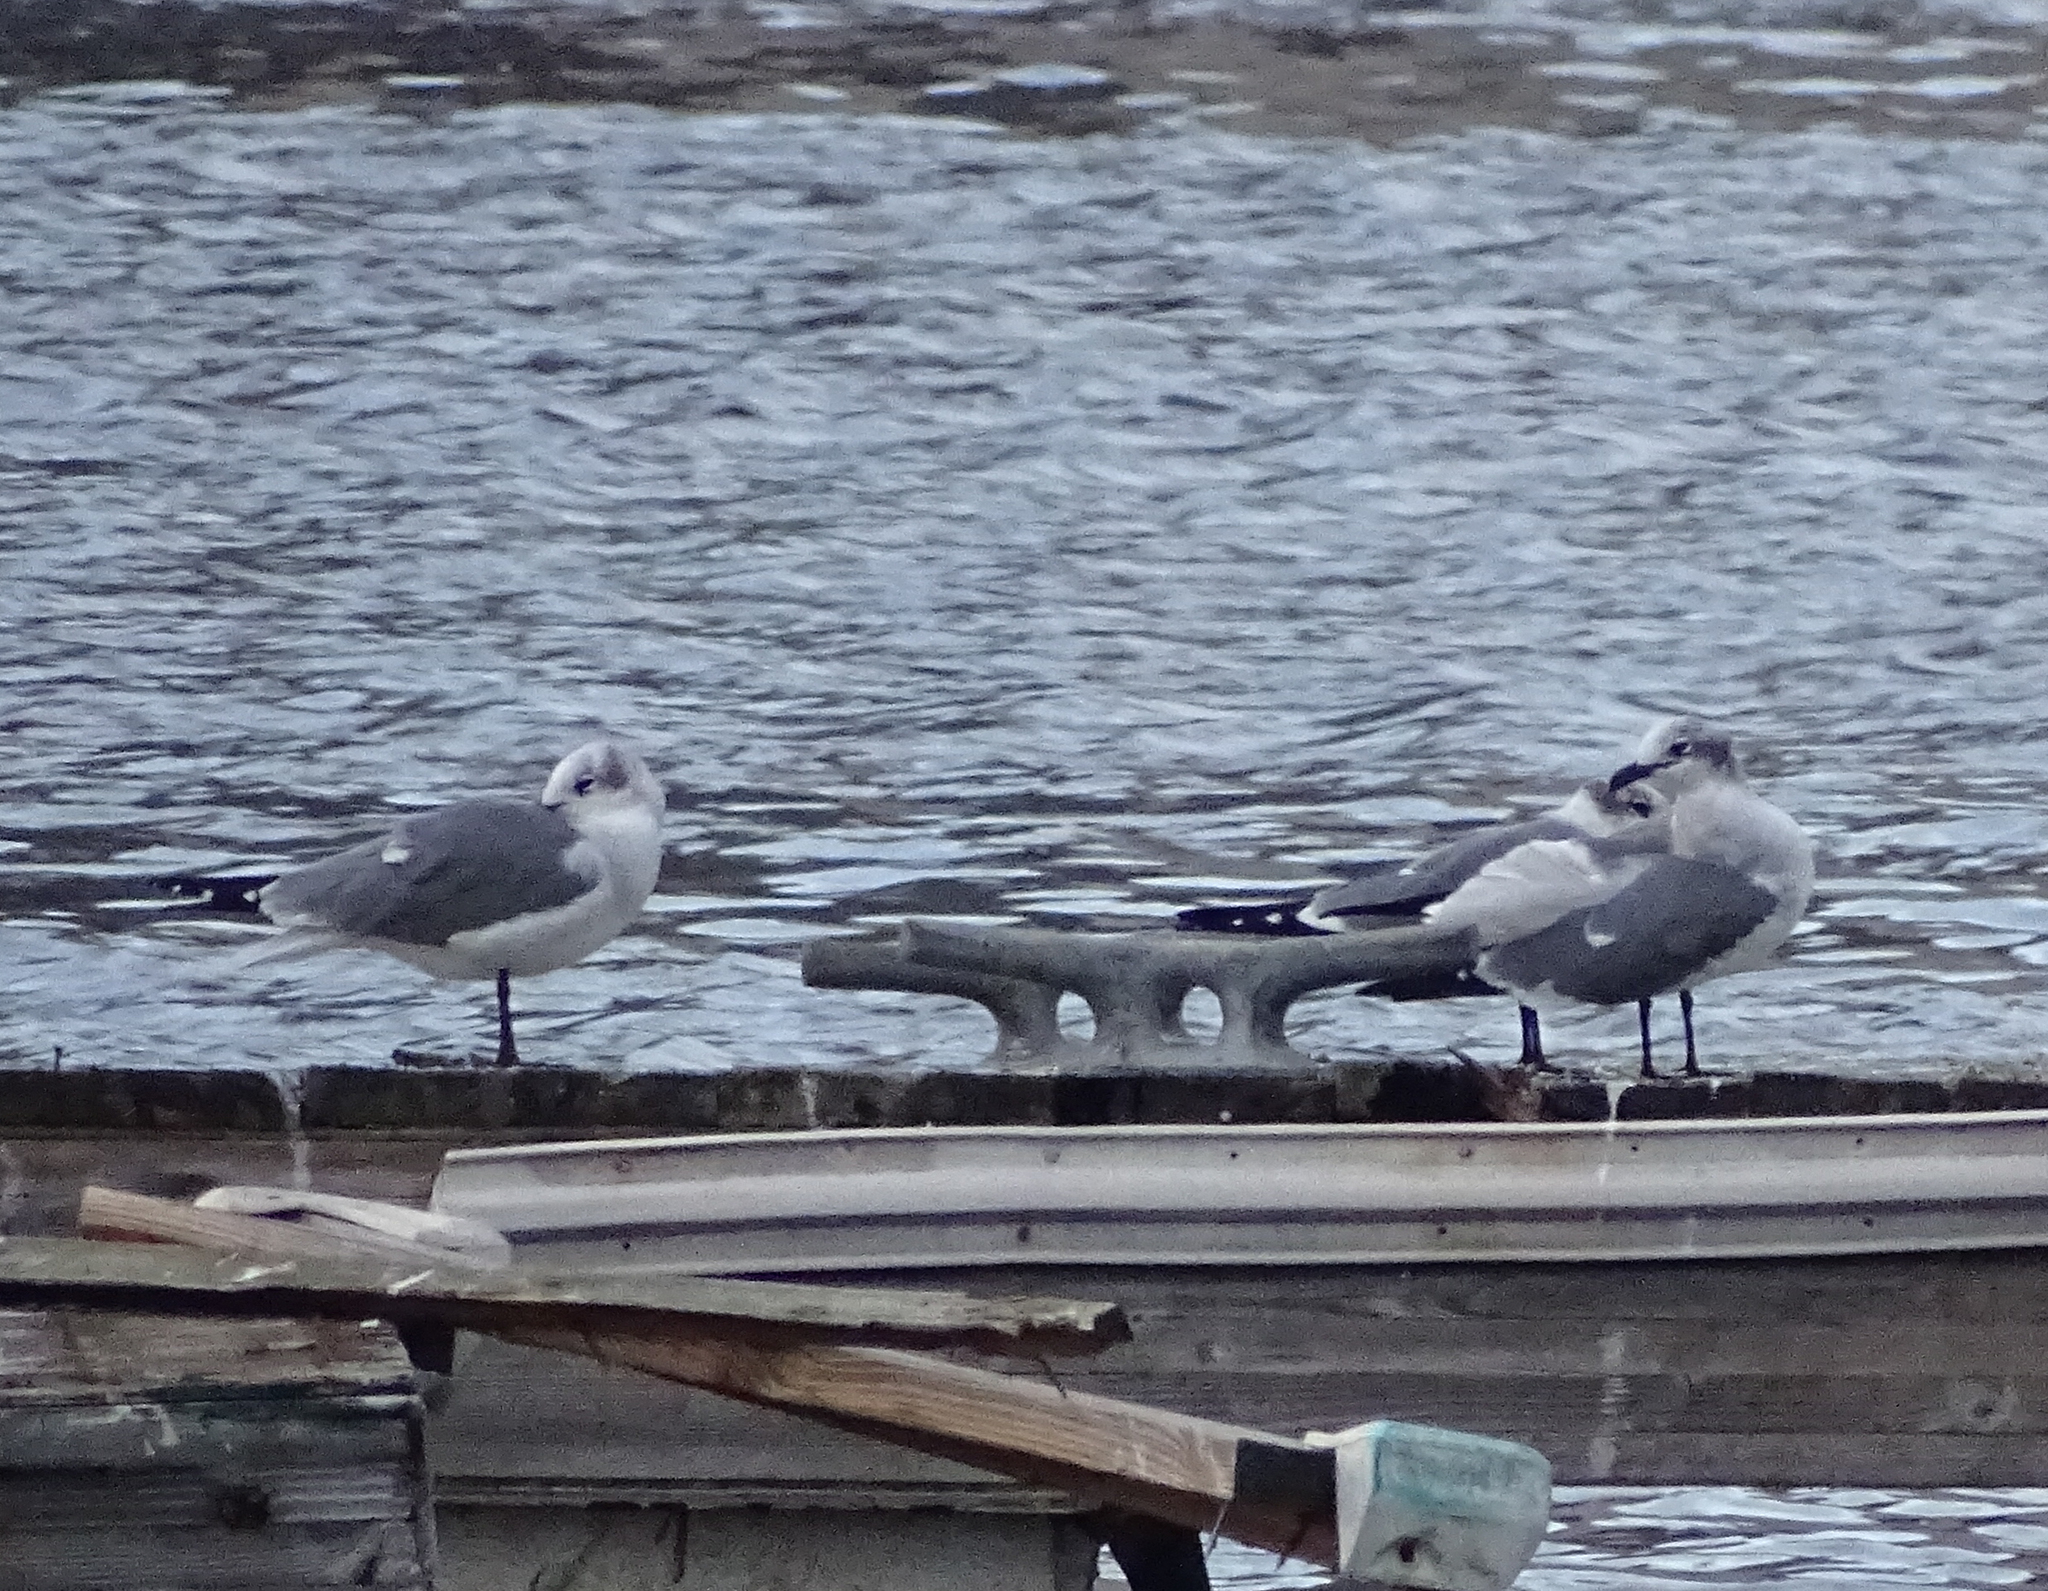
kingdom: Animalia
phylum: Chordata
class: Aves
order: Charadriiformes
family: Laridae
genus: Leucophaeus
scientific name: Leucophaeus atricilla
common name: Laughing gull
